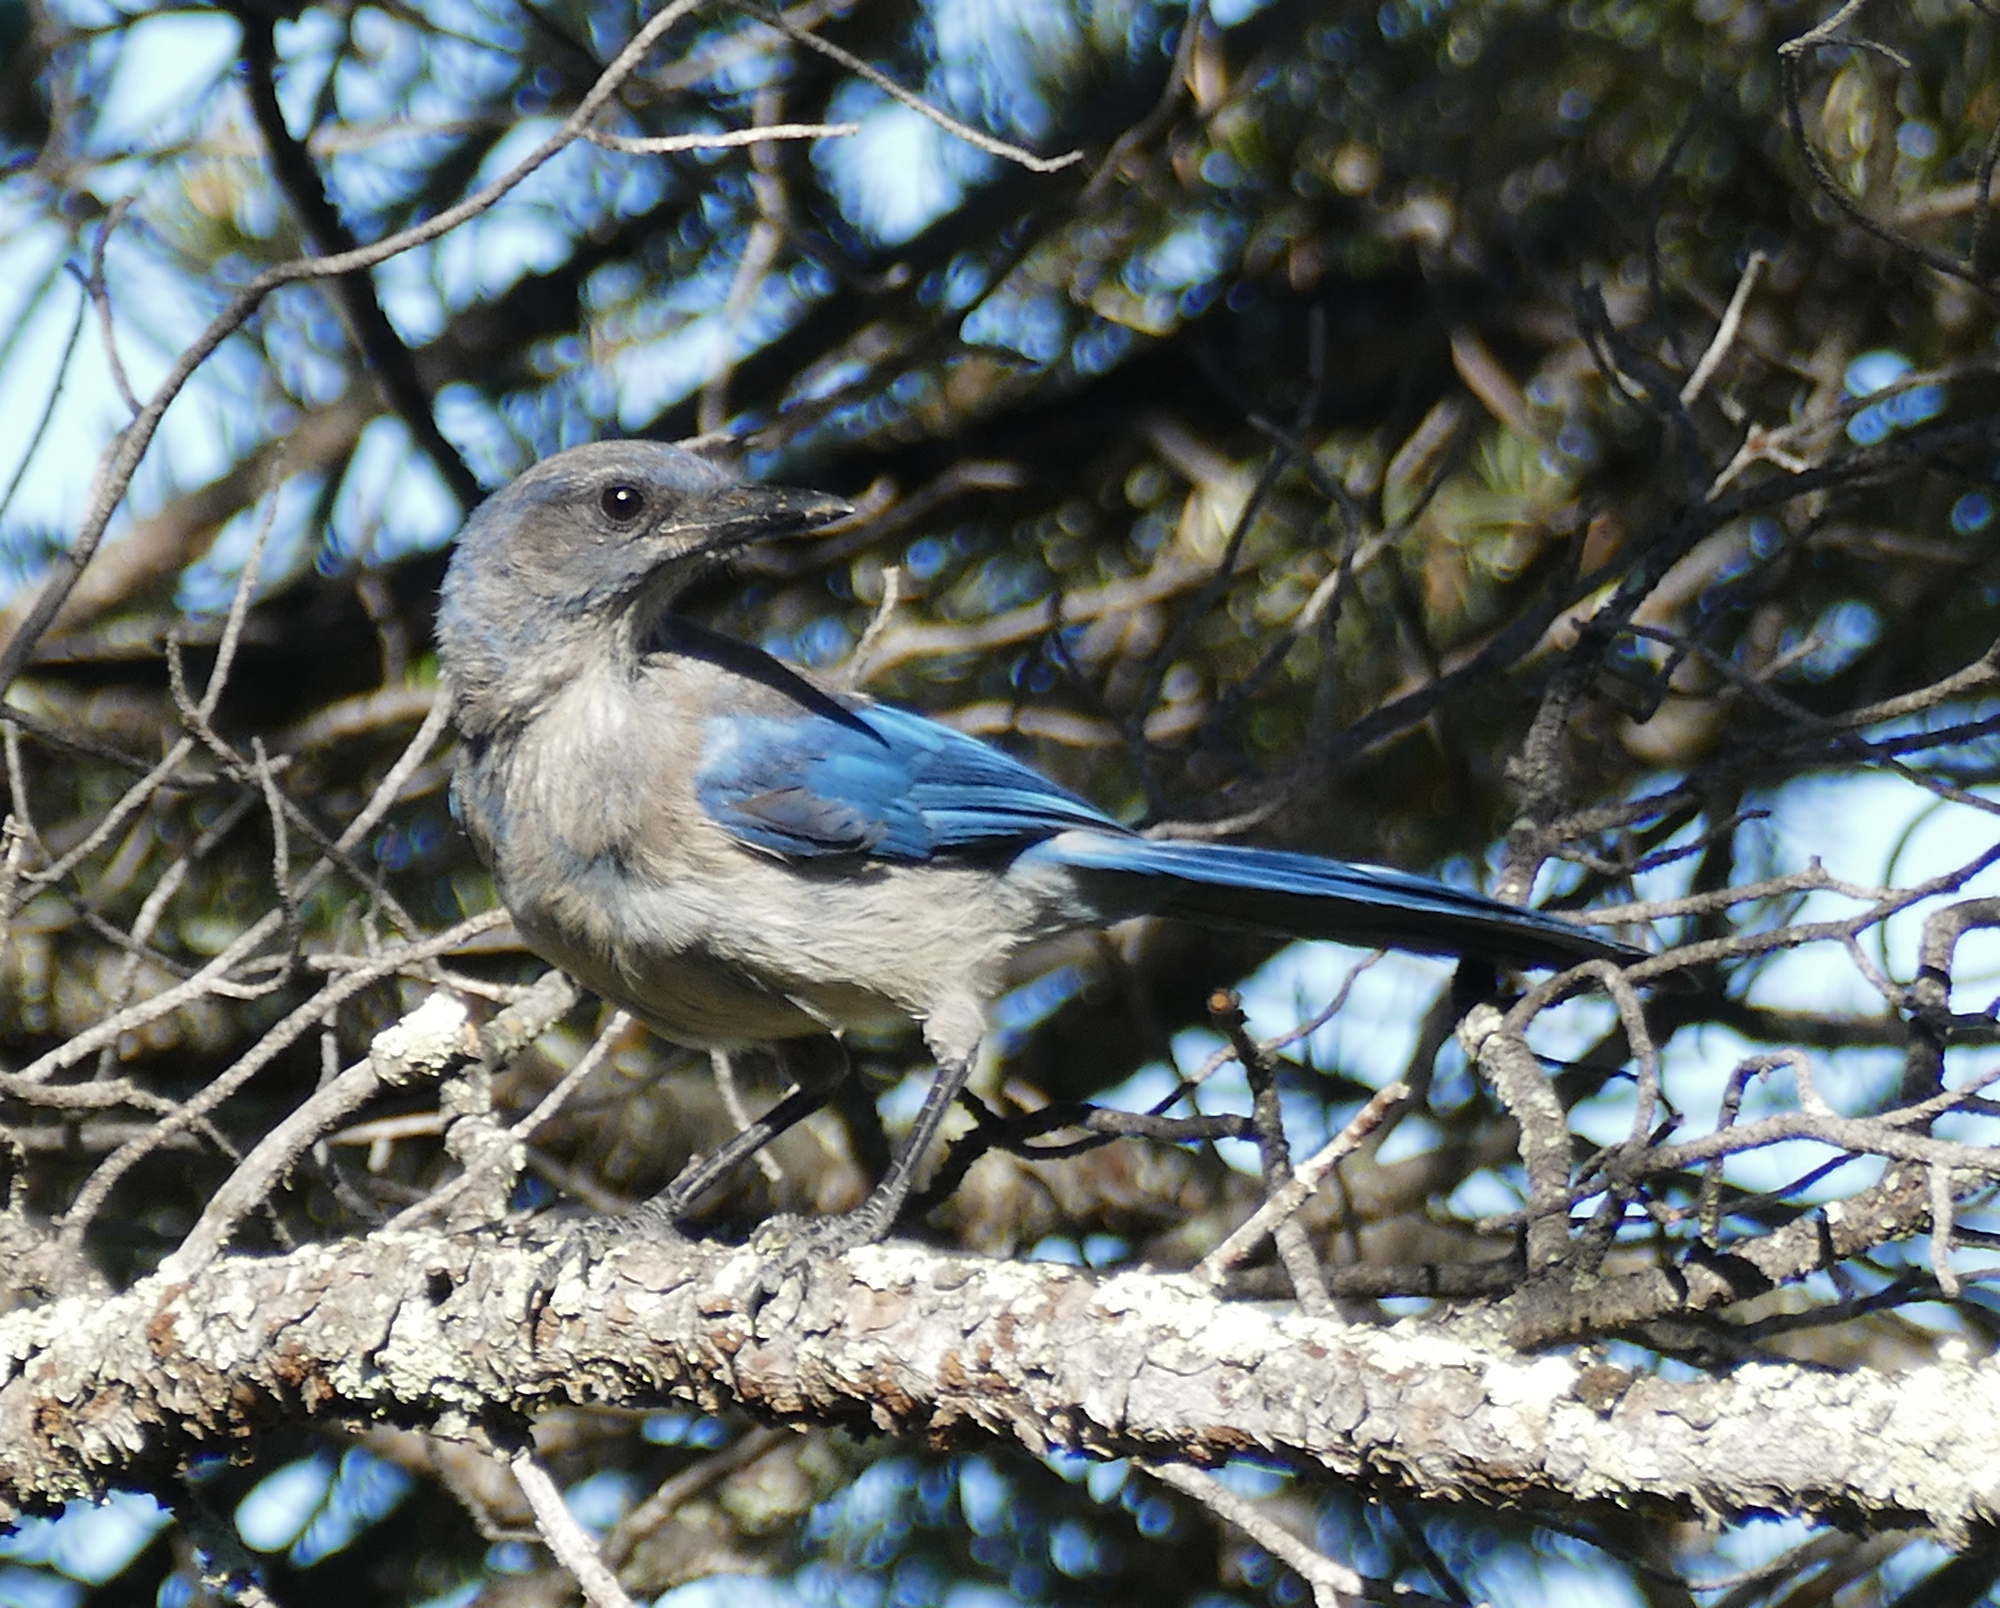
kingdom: Animalia
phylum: Chordata
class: Aves
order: Passeriformes
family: Corvidae
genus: Aphelocoma
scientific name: Aphelocoma woodhouseii
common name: Woodhouse's scrub-jay
